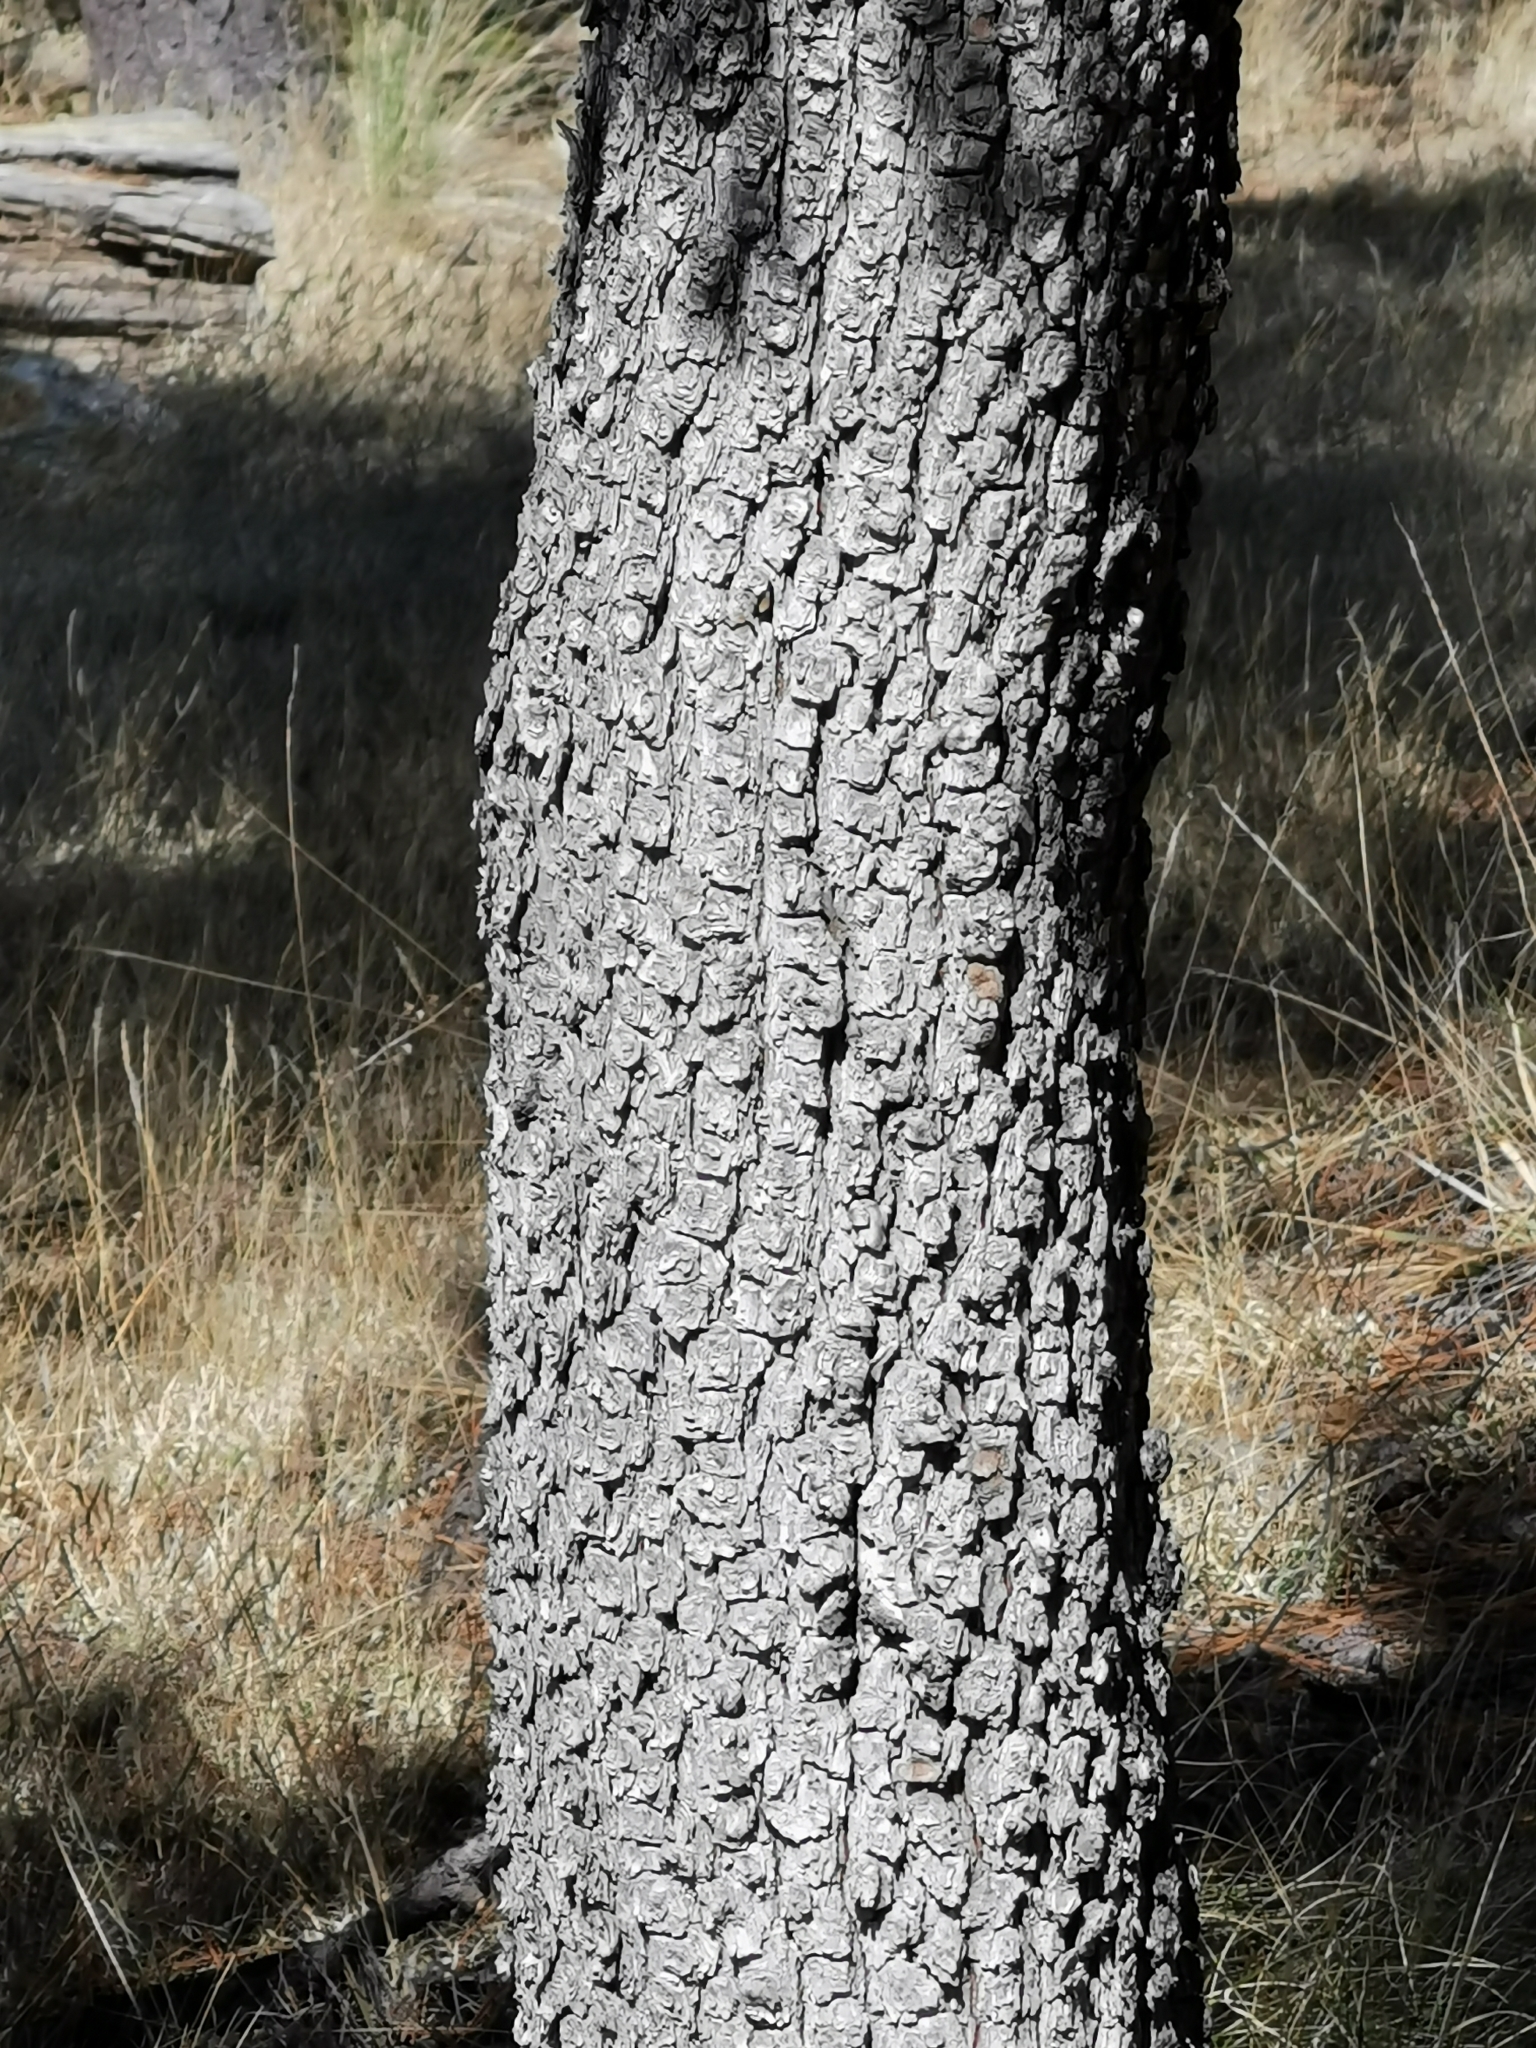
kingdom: Plantae
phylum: Tracheophyta
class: Pinopsida
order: Pinales
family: Cupressaceae
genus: Juniperus
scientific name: Juniperus deppeana
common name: Alligator juniper
